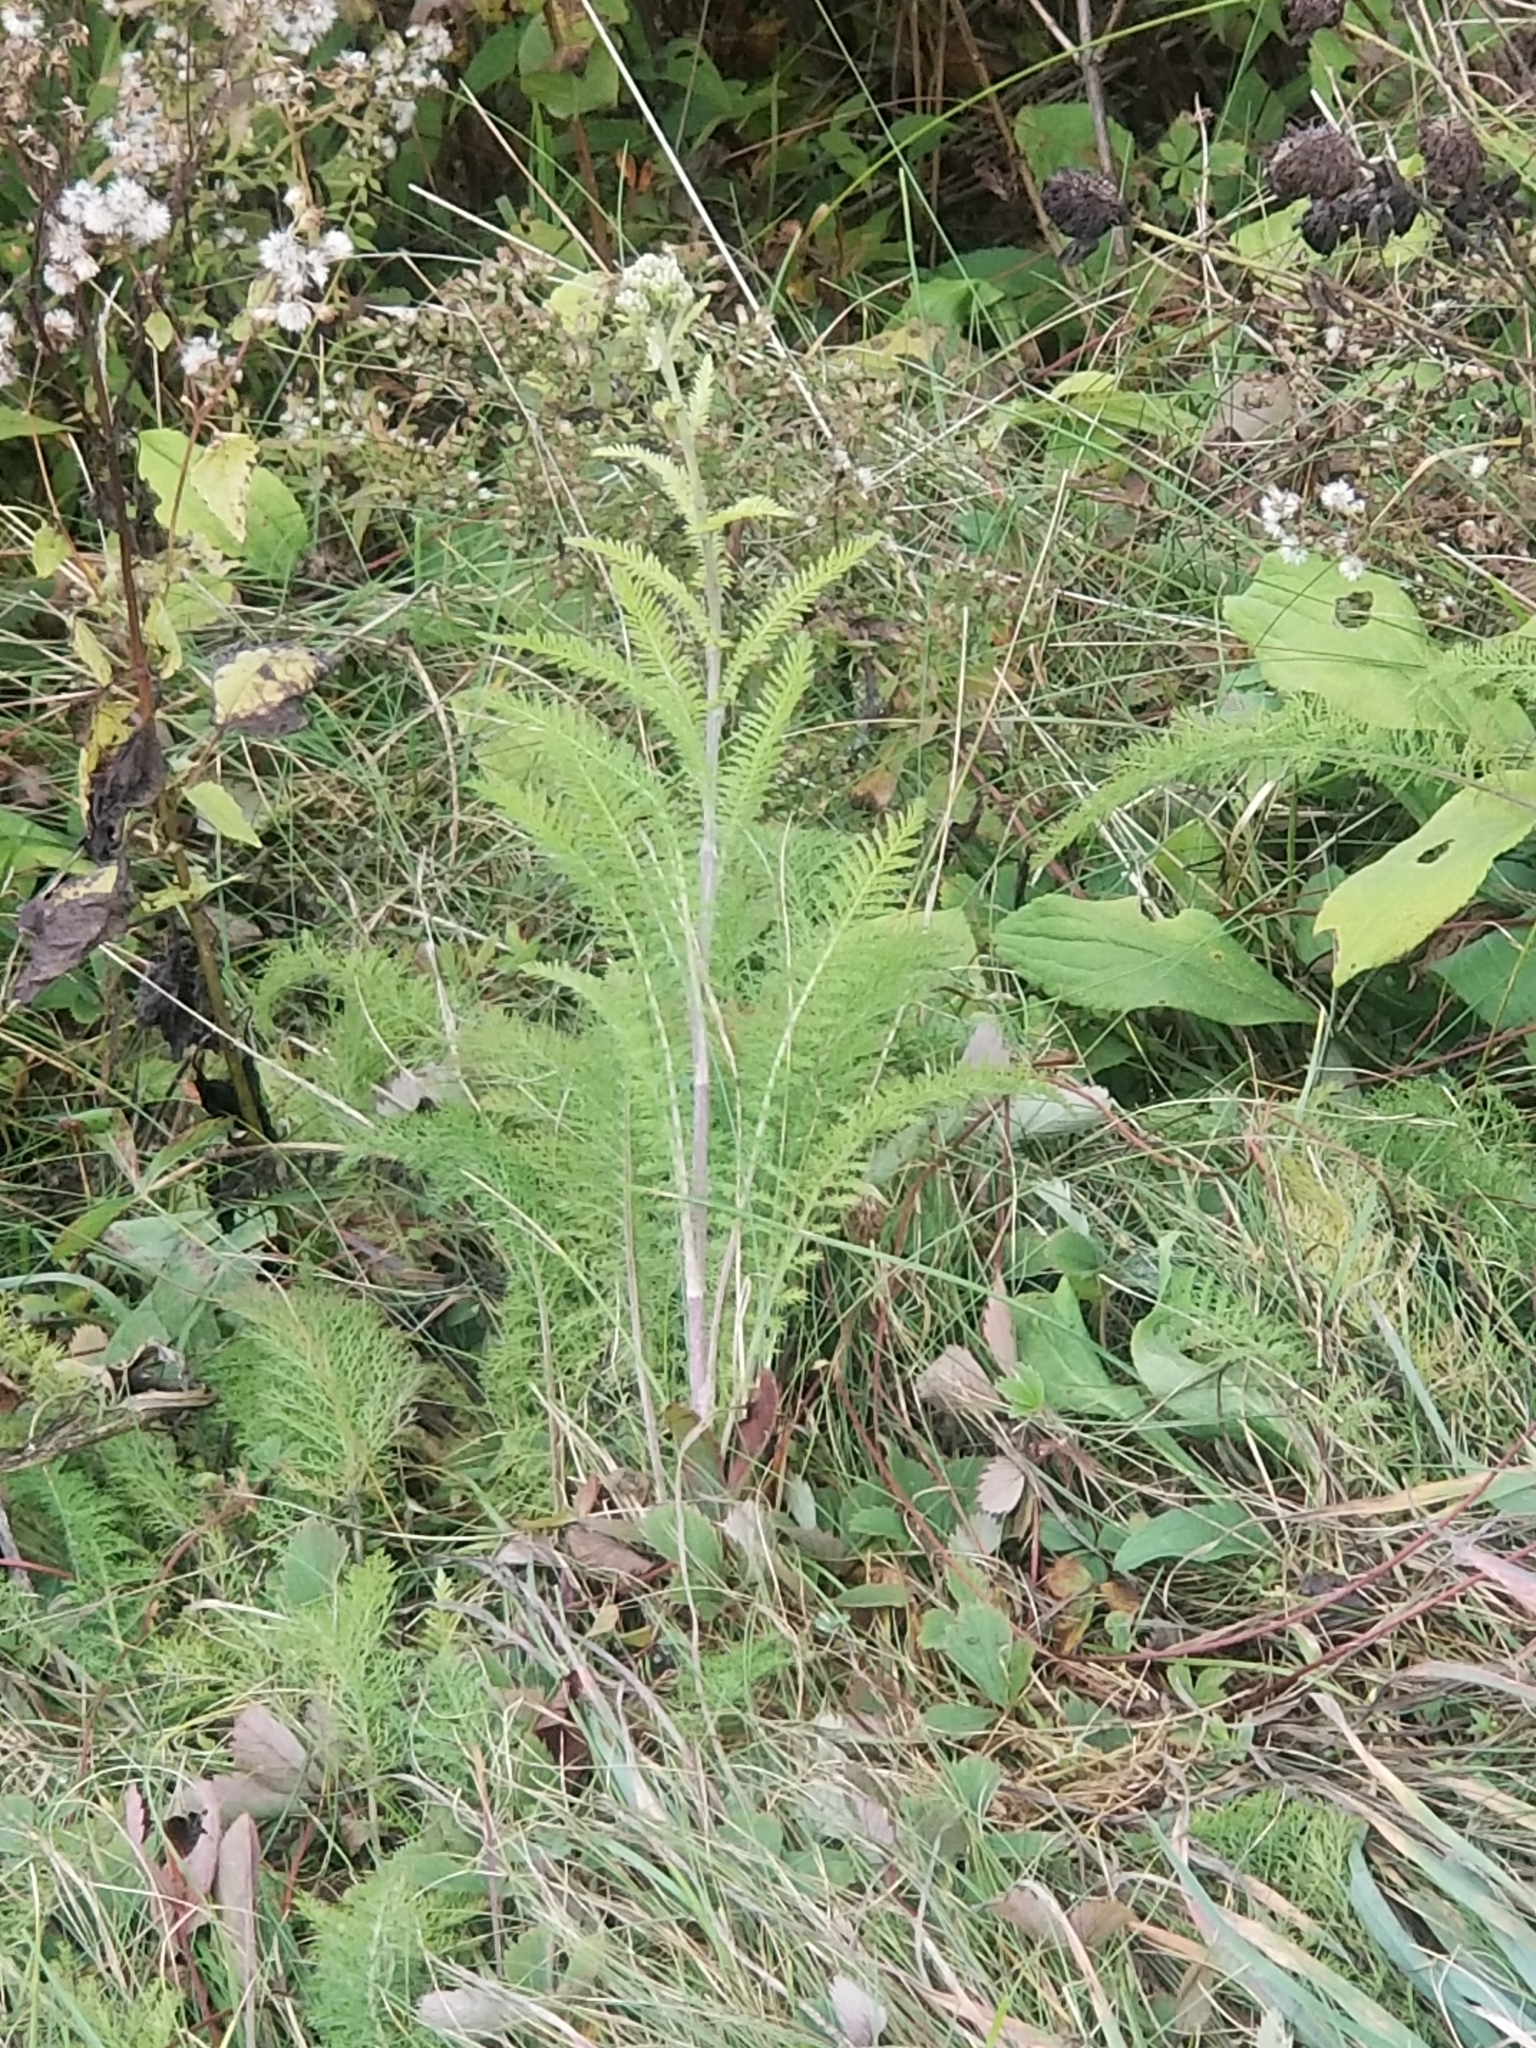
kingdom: Plantae
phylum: Tracheophyta
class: Magnoliopsida
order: Asterales
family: Asteraceae
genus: Achillea
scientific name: Achillea millefolium
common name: Yarrow
